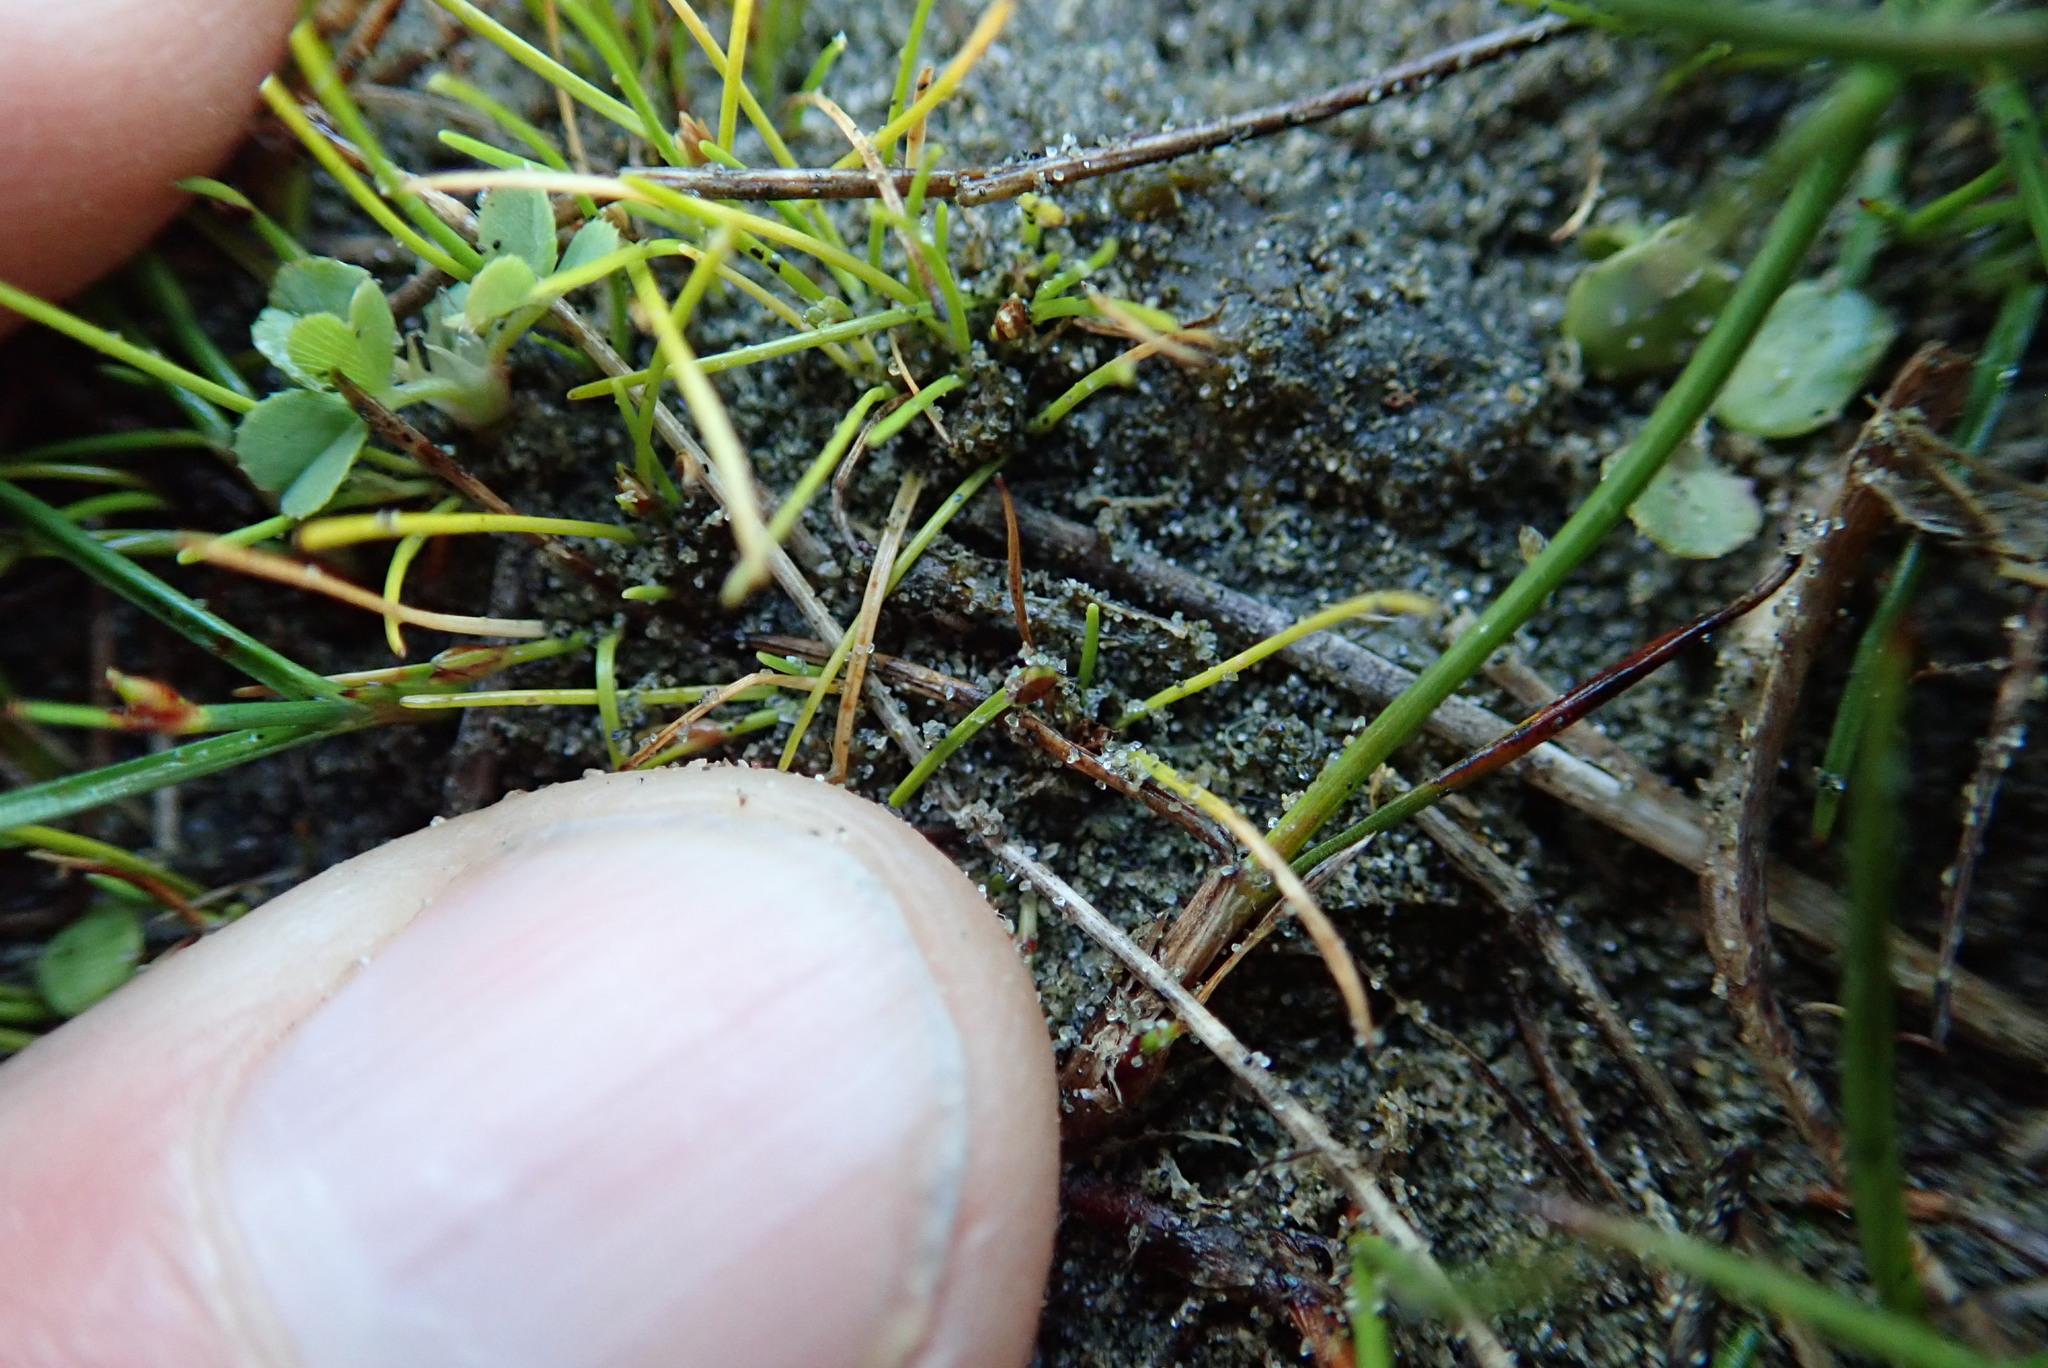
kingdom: Plantae
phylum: Tracheophyta
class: Liliopsida
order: Poales
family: Cyperaceae
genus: Isolepis
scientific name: Isolepis basilaris
